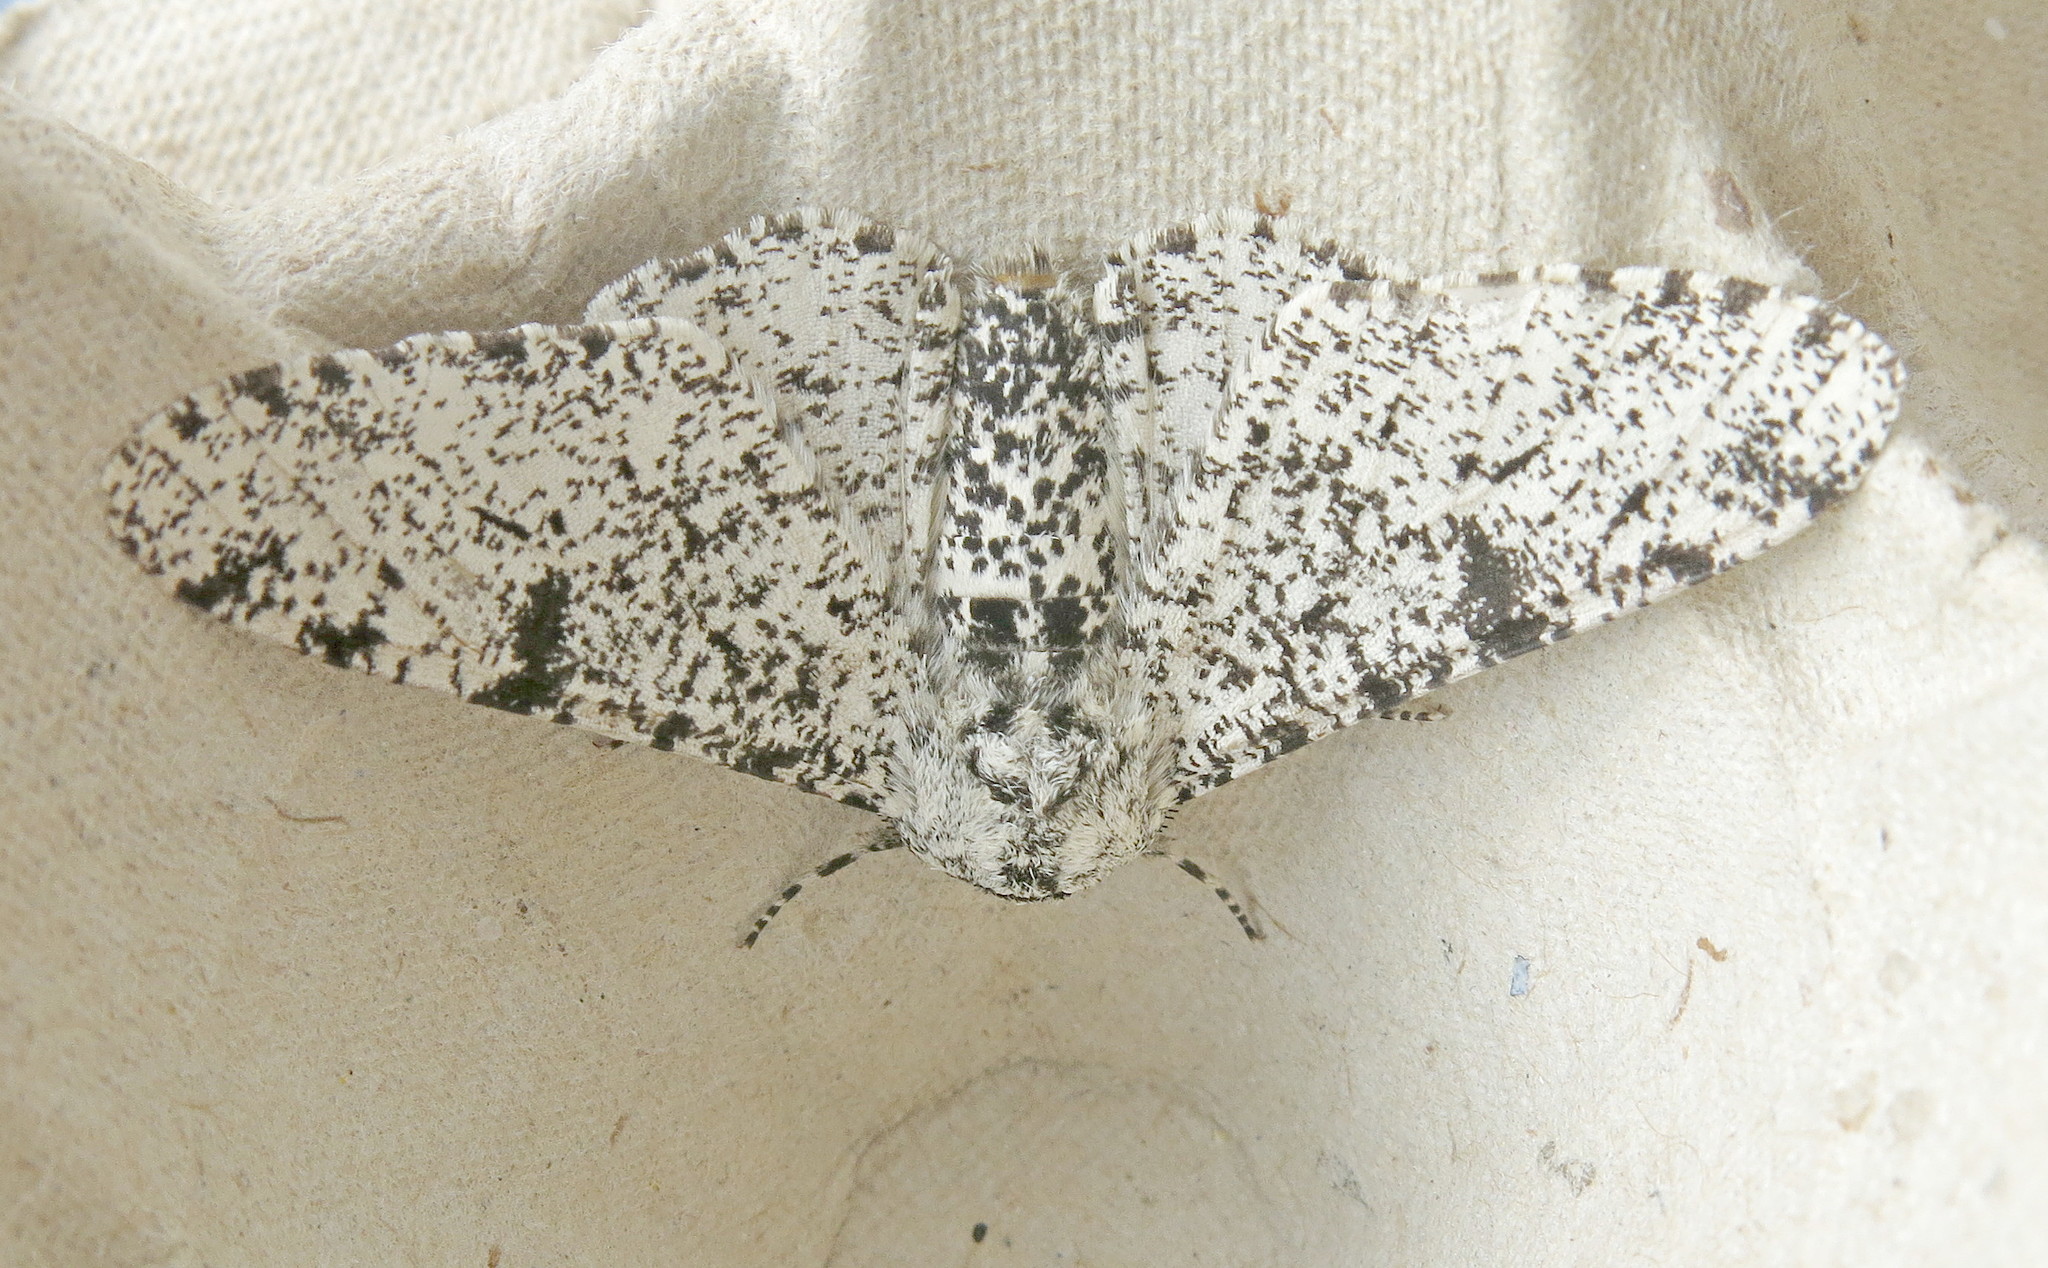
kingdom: Animalia
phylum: Arthropoda
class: Insecta
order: Lepidoptera
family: Geometridae
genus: Biston
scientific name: Biston betularia
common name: Peppered moth
